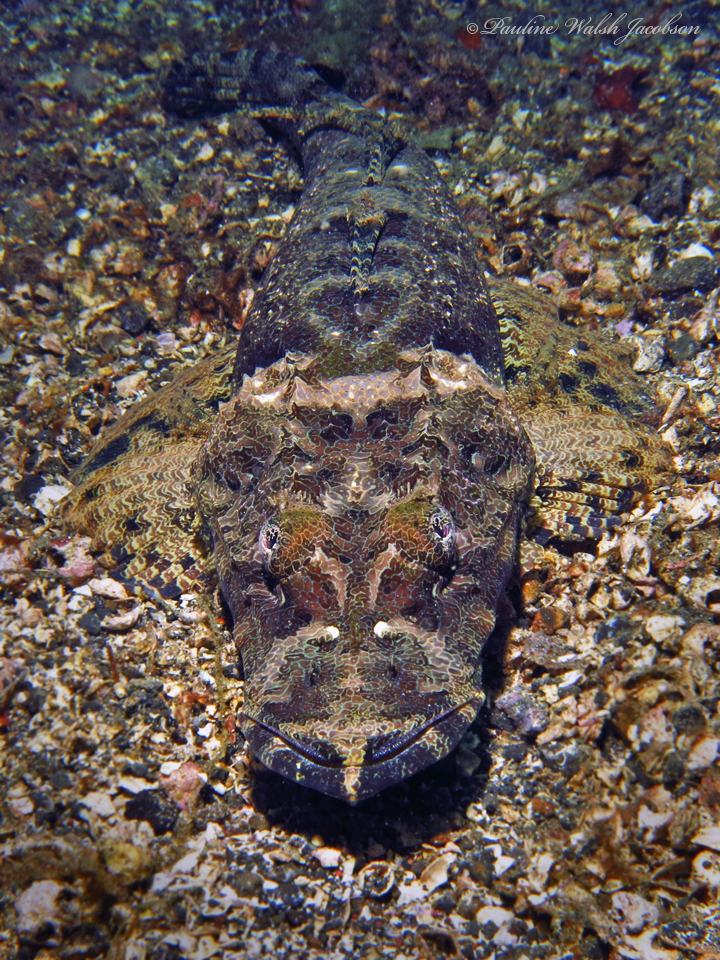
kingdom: Animalia
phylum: Chordata
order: Scorpaeniformes
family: Platycephalidae
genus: Cymbacephalus
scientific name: Cymbacephalus beauforti
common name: Crocodile fish
